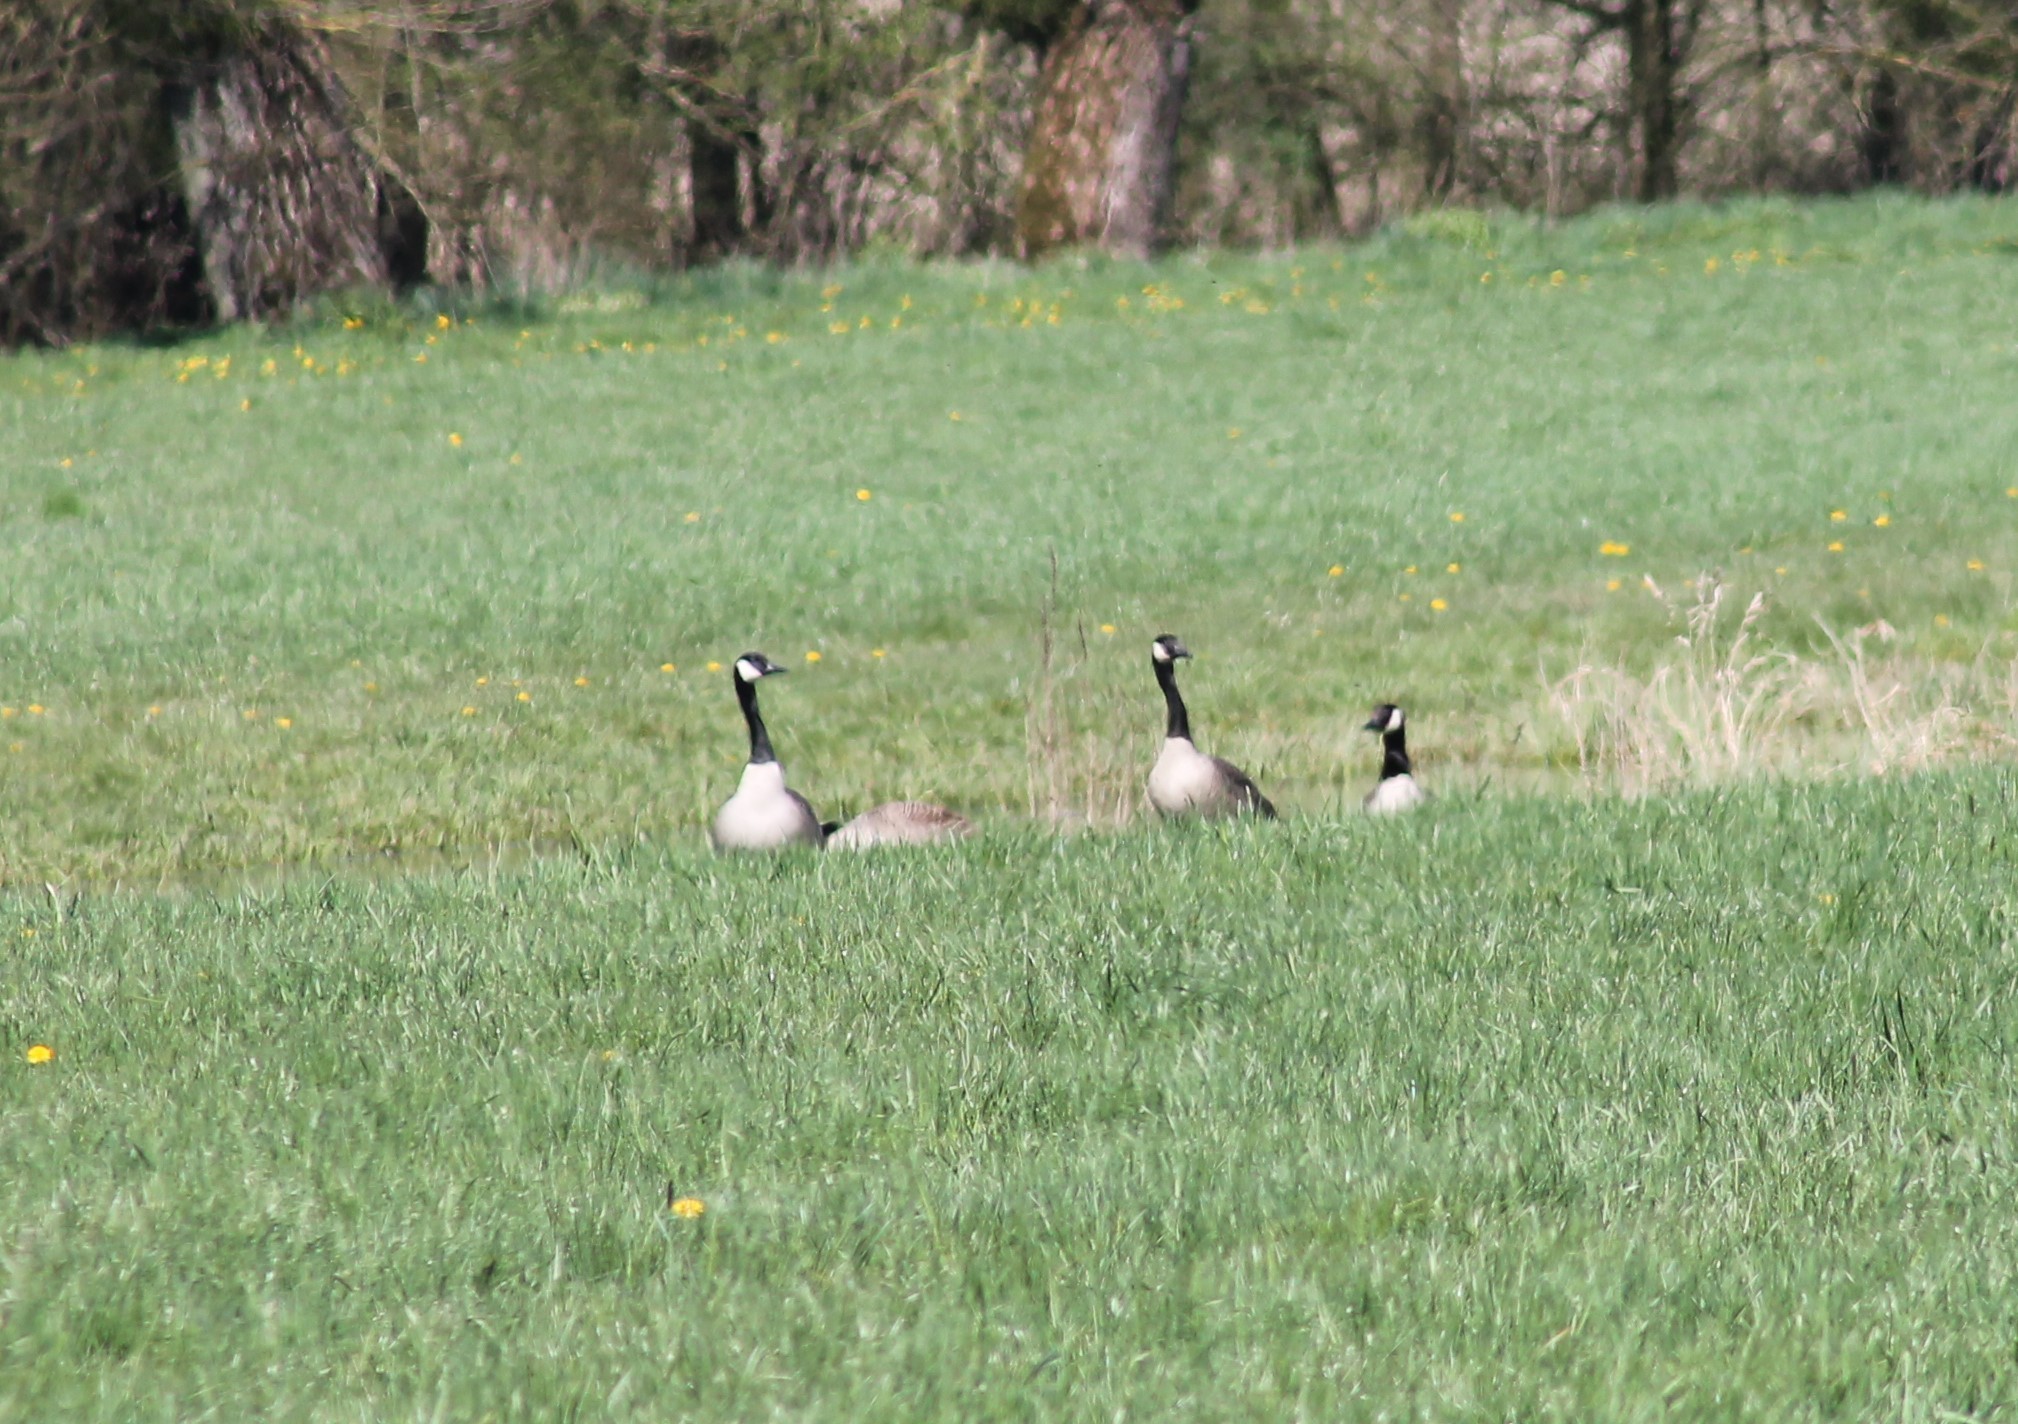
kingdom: Animalia
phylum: Chordata
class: Aves
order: Anseriformes
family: Anatidae
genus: Branta
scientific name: Branta canadensis
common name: Canada goose
